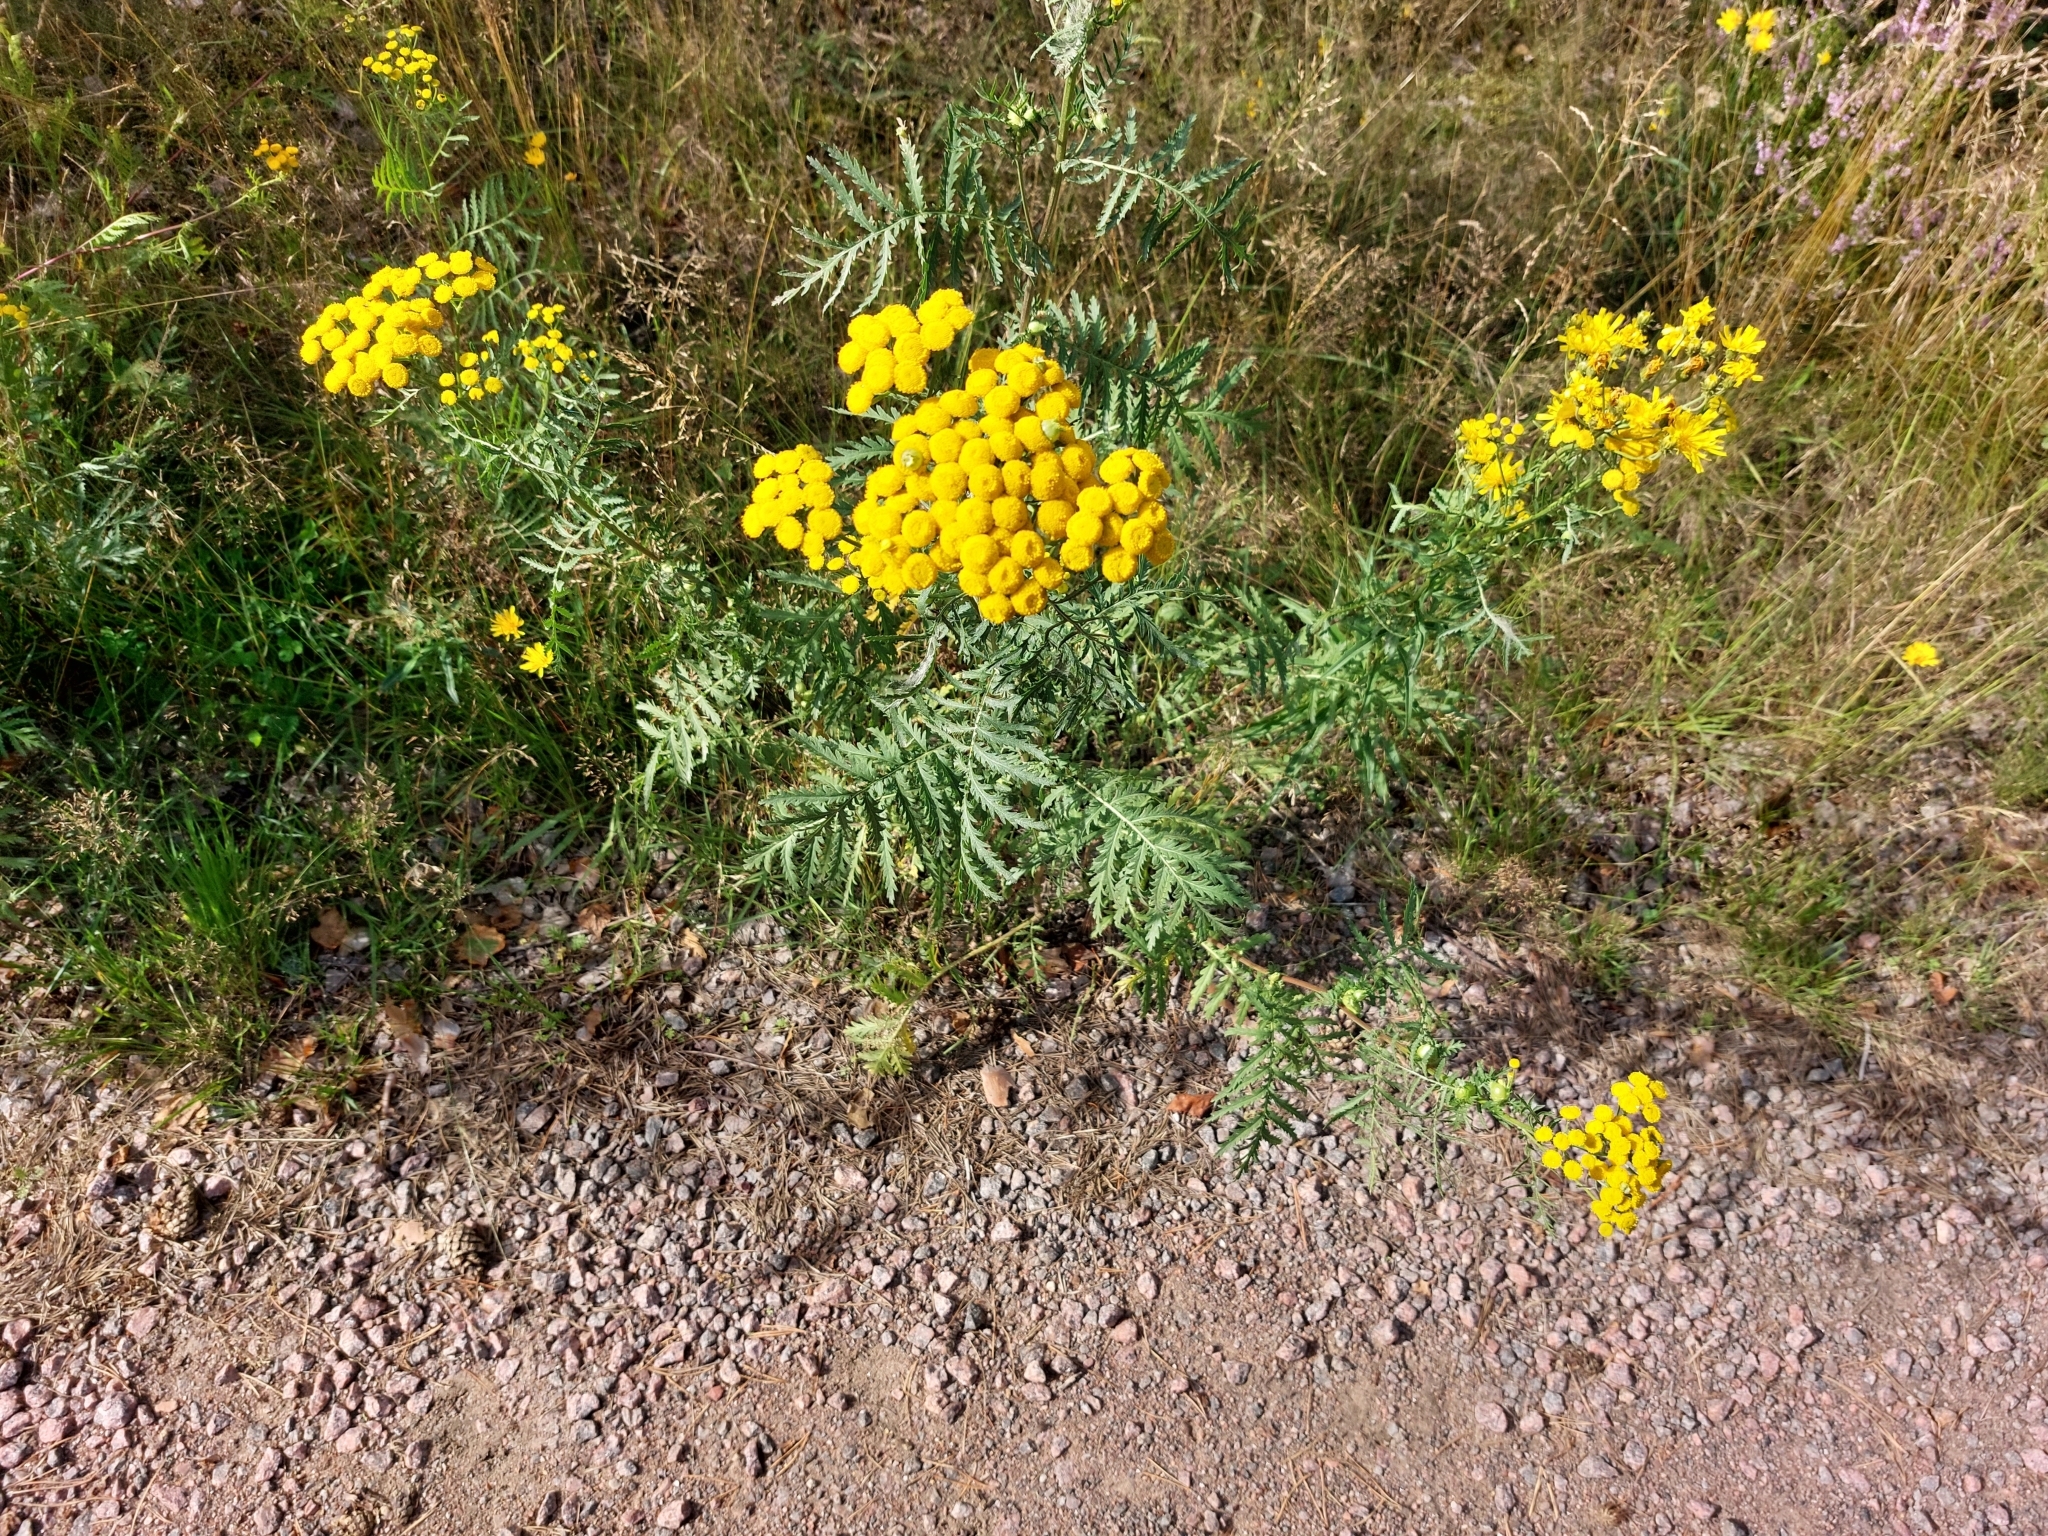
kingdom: Plantae
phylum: Tracheophyta
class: Magnoliopsida
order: Asterales
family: Asteraceae
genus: Tanacetum
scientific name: Tanacetum vulgare
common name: Common tansy
